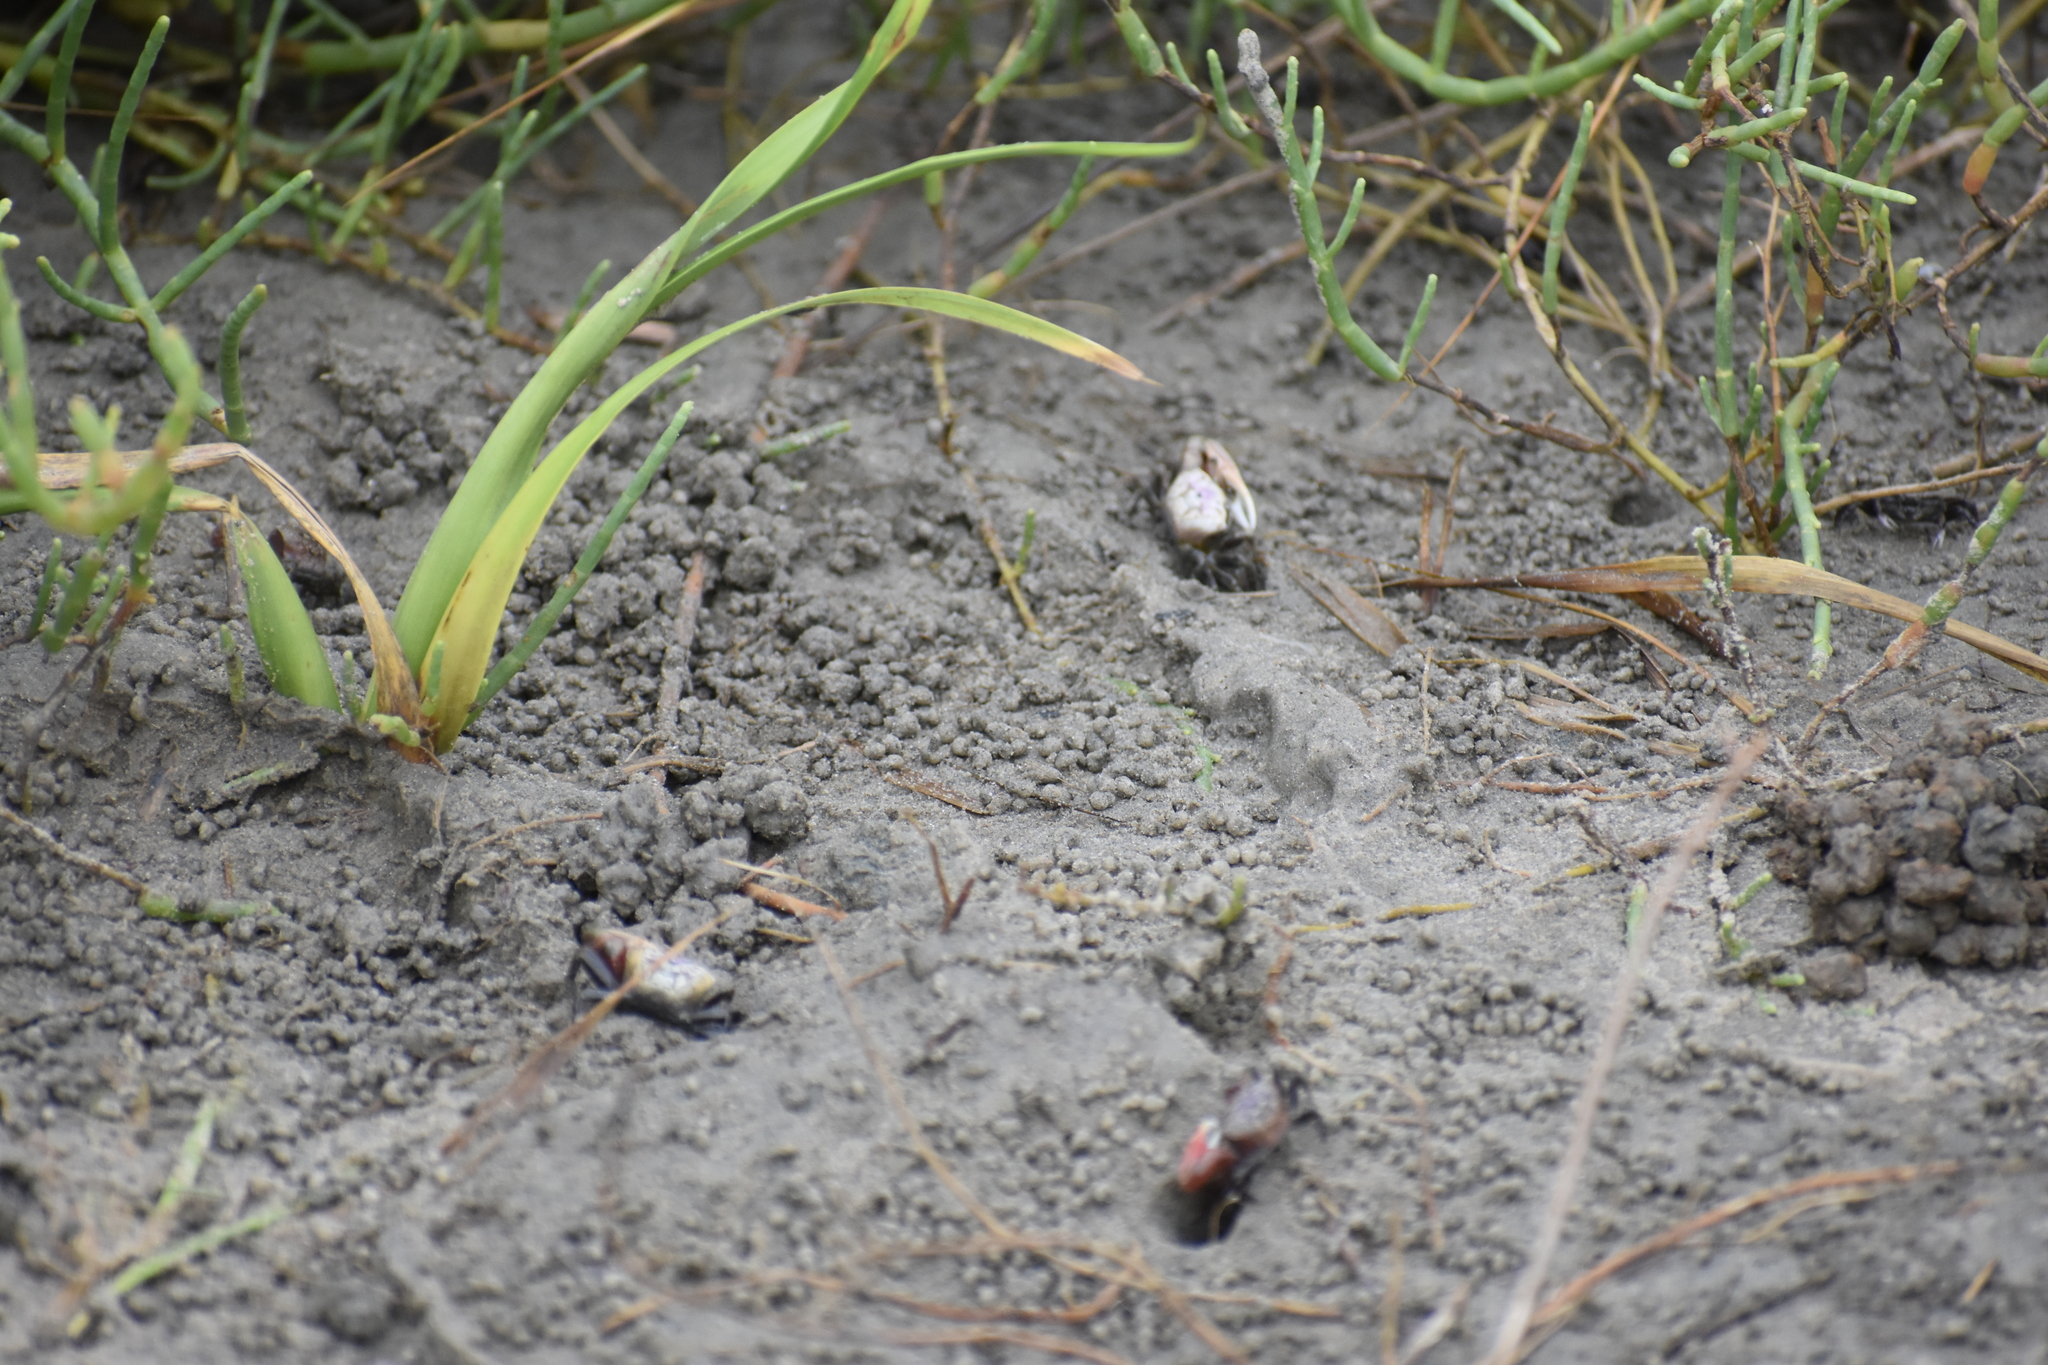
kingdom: Animalia
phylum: Arthropoda
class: Malacostraca
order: Decapoda
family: Ocypodidae
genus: Leptuca
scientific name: Leptuca pugilator
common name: Atlantic sand fiddler crab
